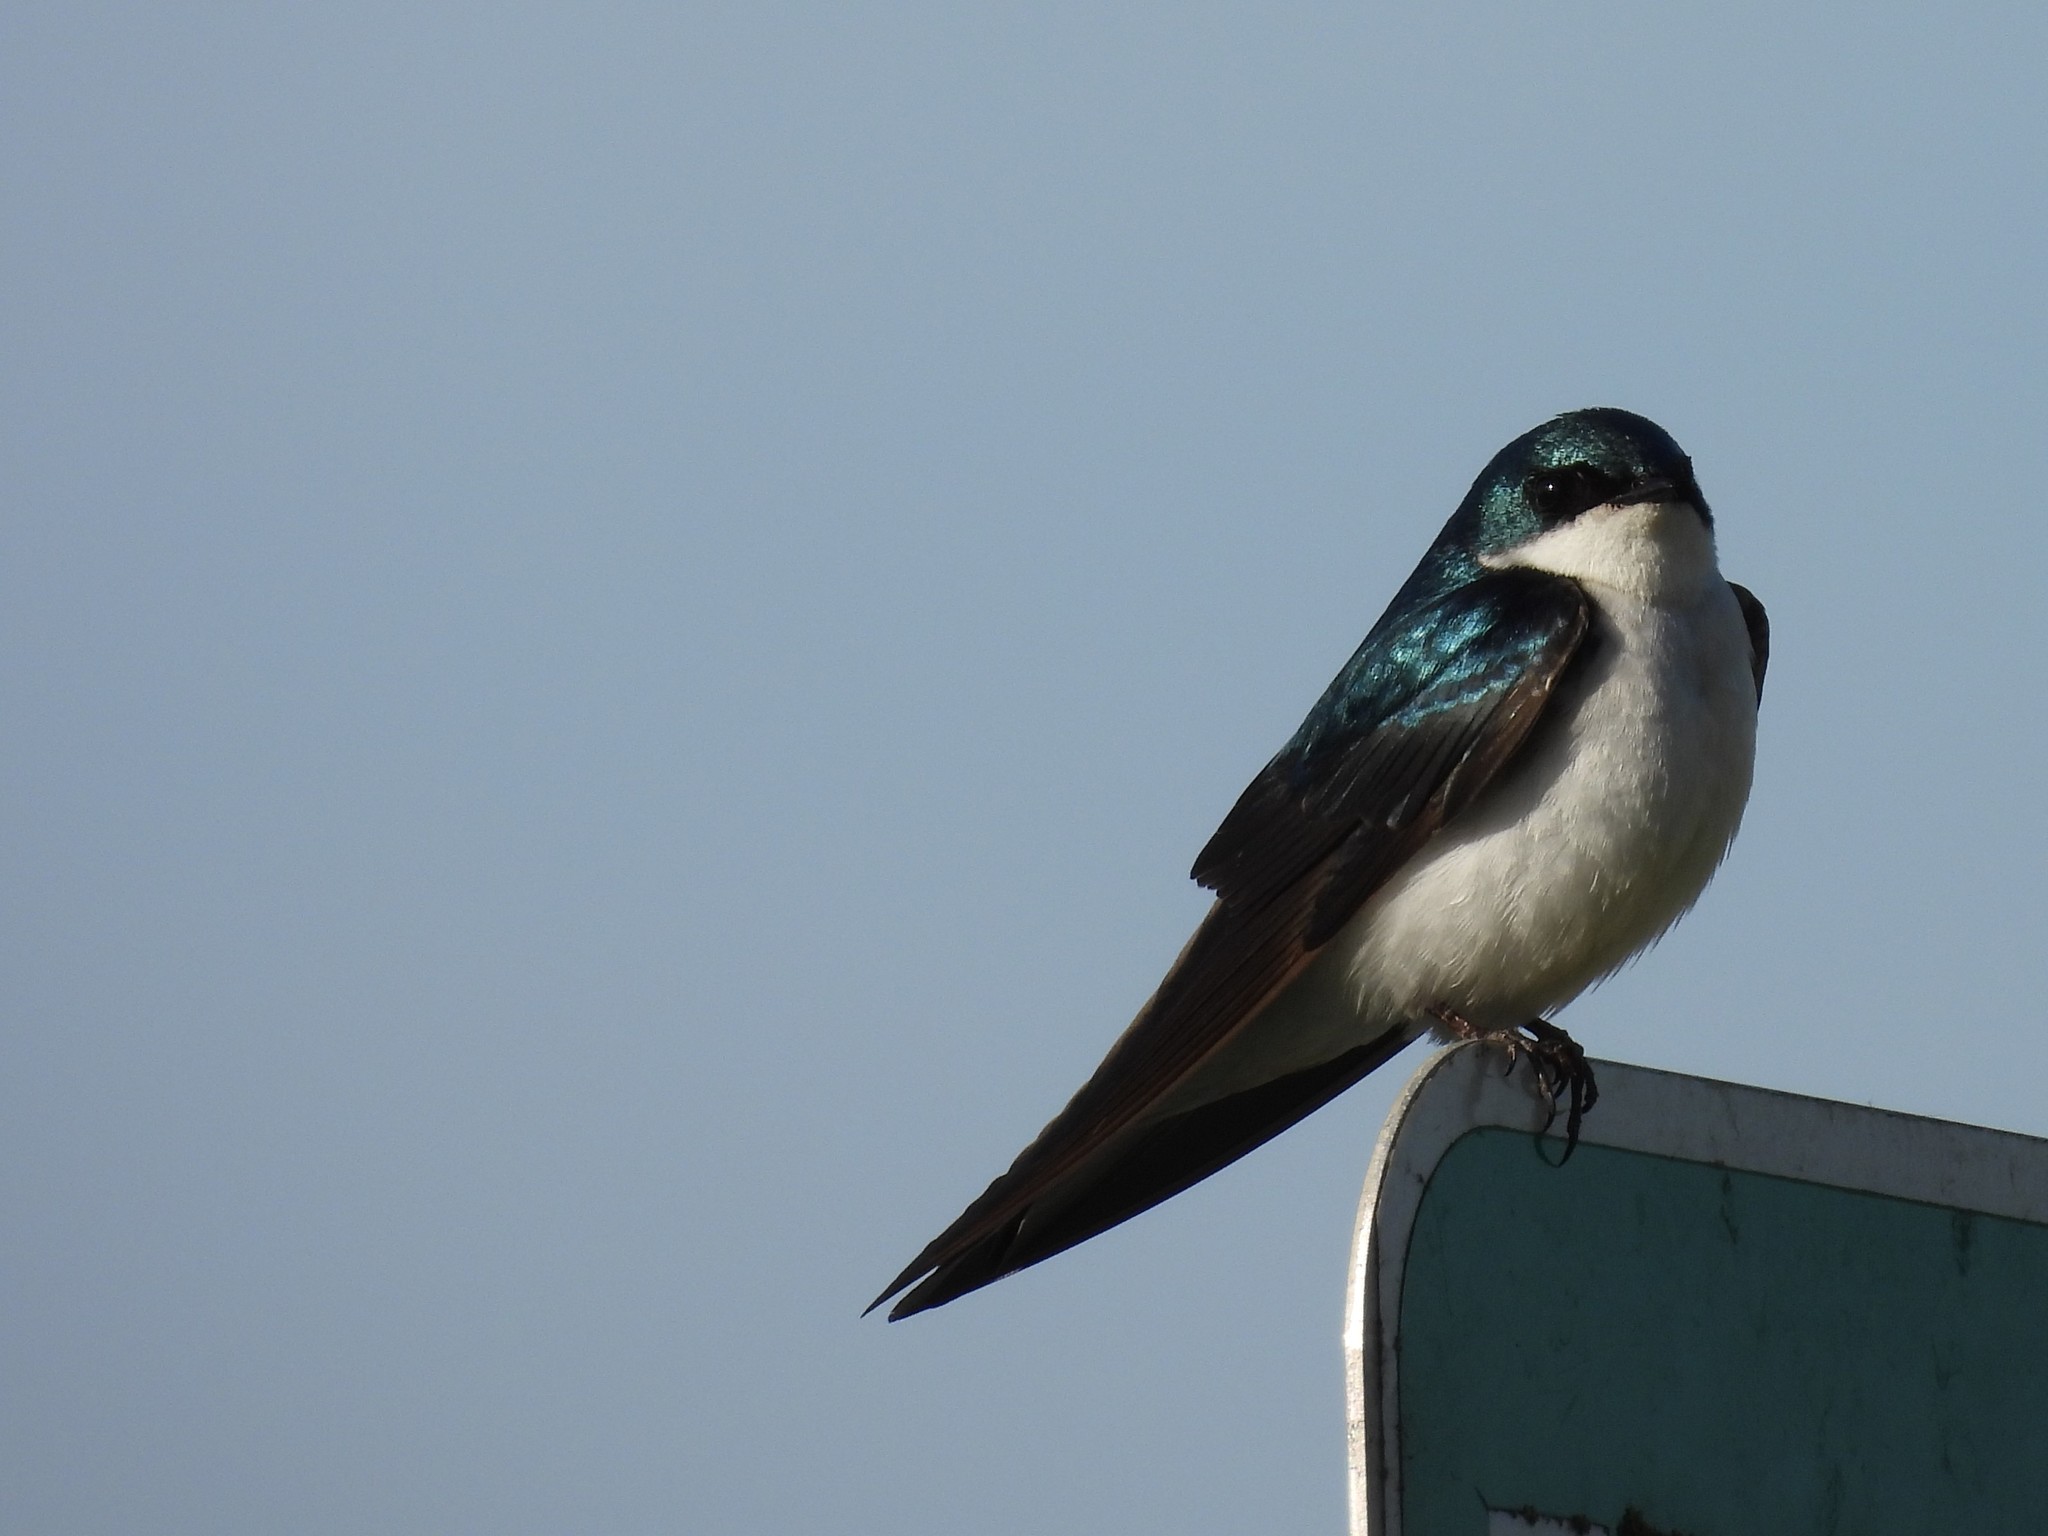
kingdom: Animalia
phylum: Chordata
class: Aves
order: Passeriformes
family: Hirundinidae
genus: Tachycineta
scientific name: Tachycineta bicolor
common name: Tree swallow
